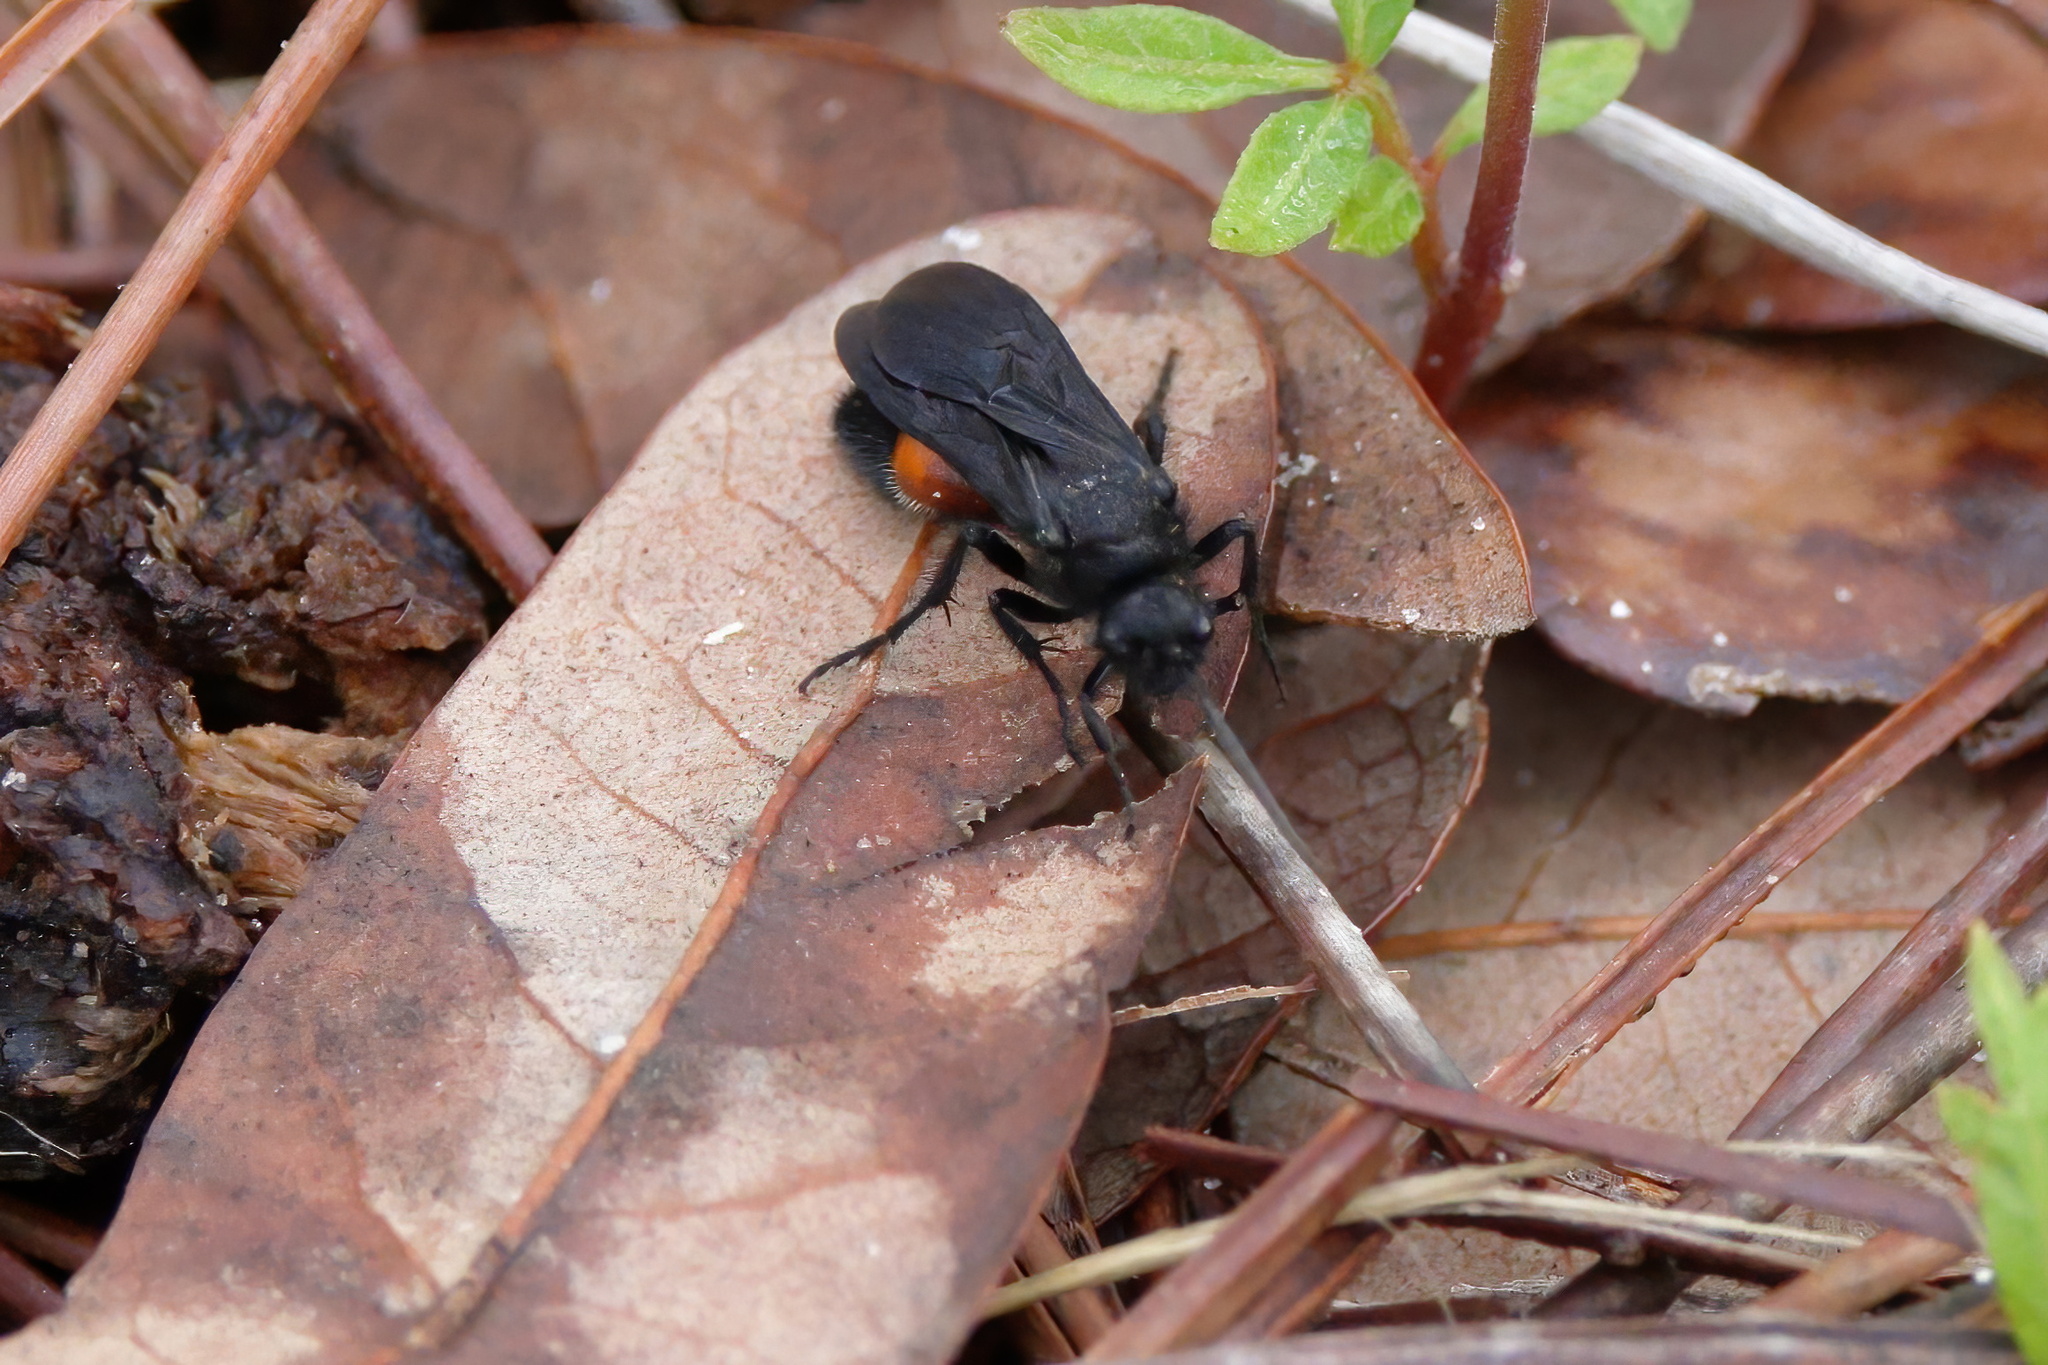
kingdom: Animalia
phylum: Arthropoda
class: Insecta
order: Hymenoptera
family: Mutillidae
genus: Dasymutilla
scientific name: Dasymutilla
